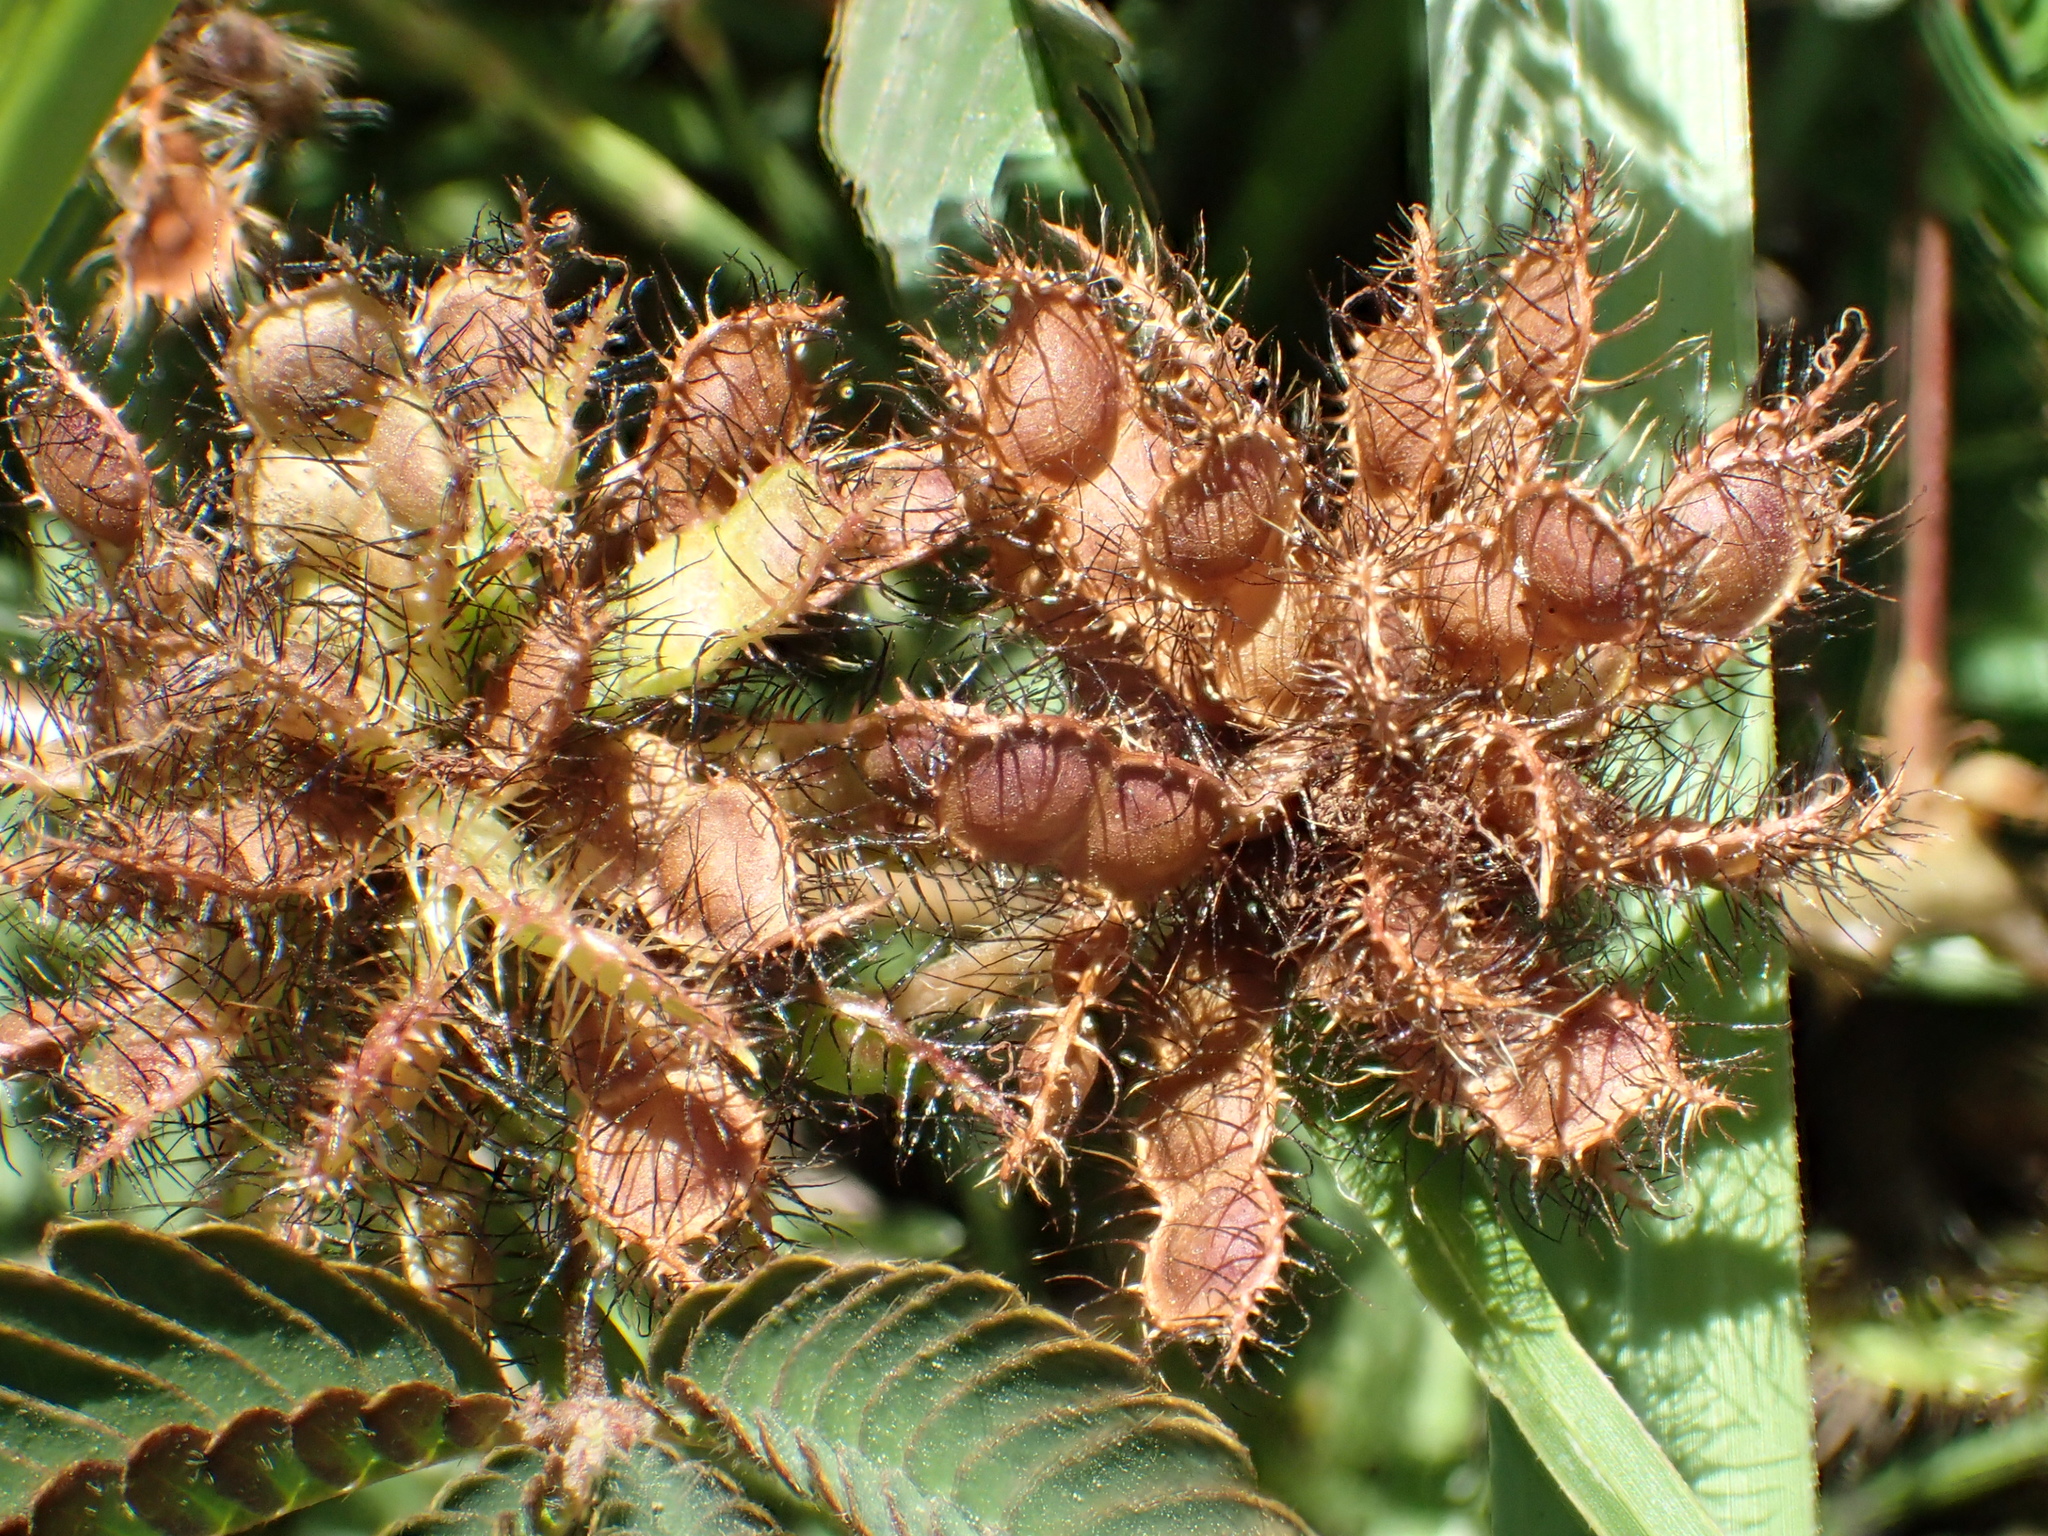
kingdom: Plantae
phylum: Tracheophyta
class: Magnoliopsida
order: Fabales
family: Fabaceae
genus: Mimosa
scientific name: Mimosa pudica
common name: Sensitive plant
